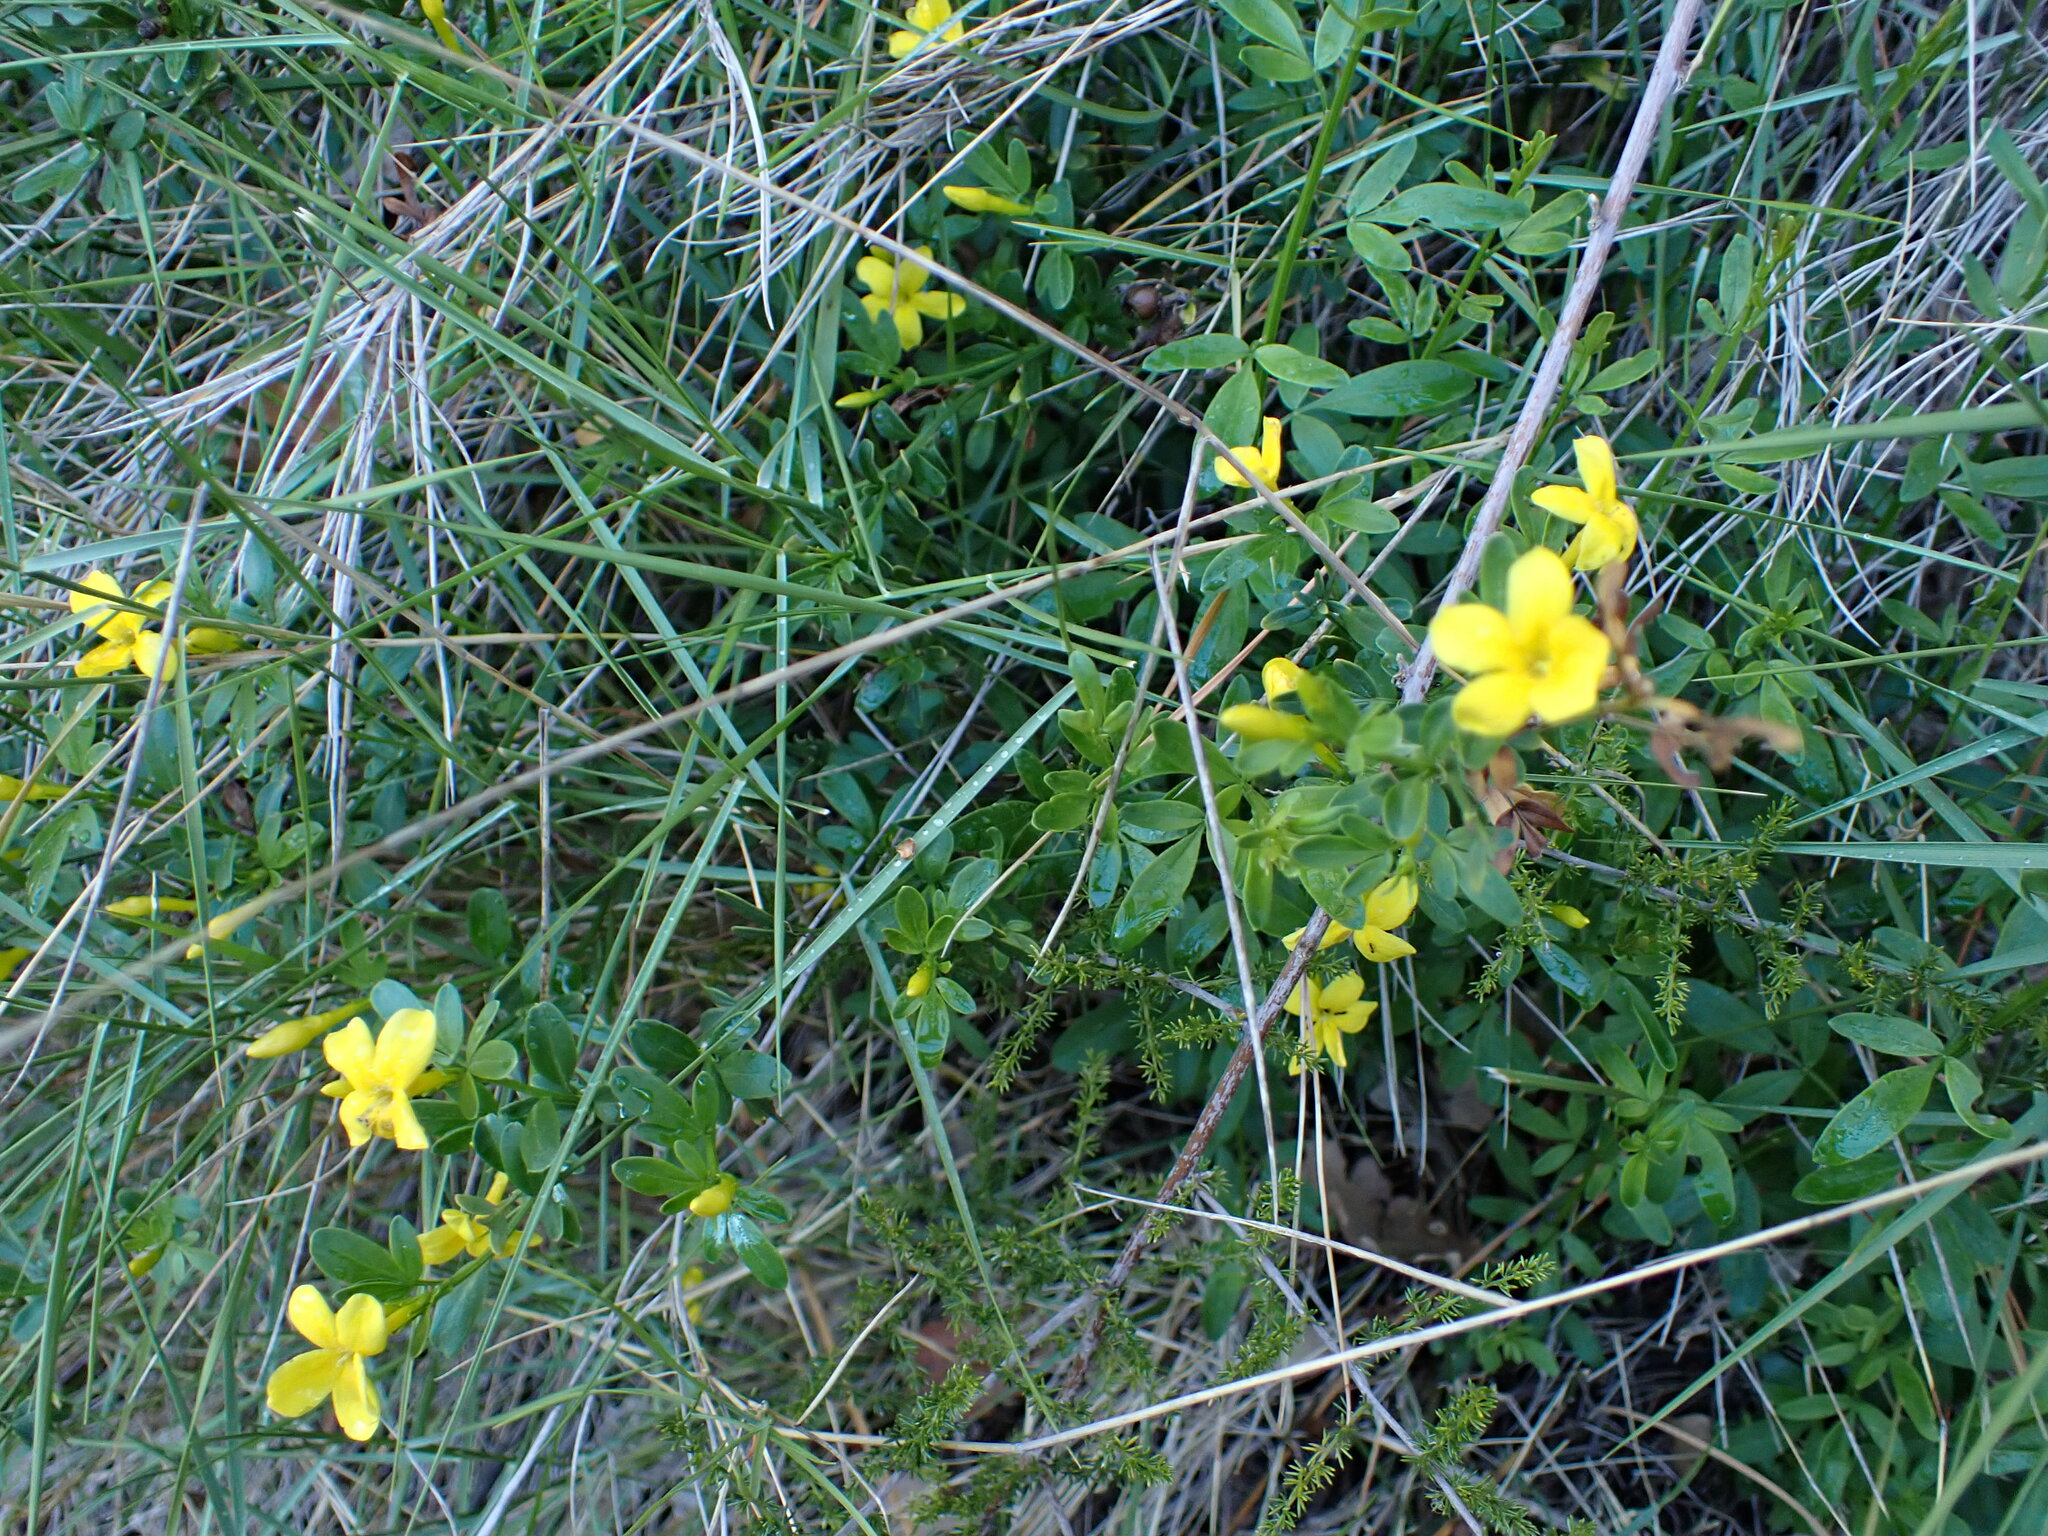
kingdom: Plantae
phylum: Tracheophyta
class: Magnoliopsida
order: Lamiales
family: Oleaceae
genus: Chrysojasminum
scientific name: Chrysojasminum fruticans
